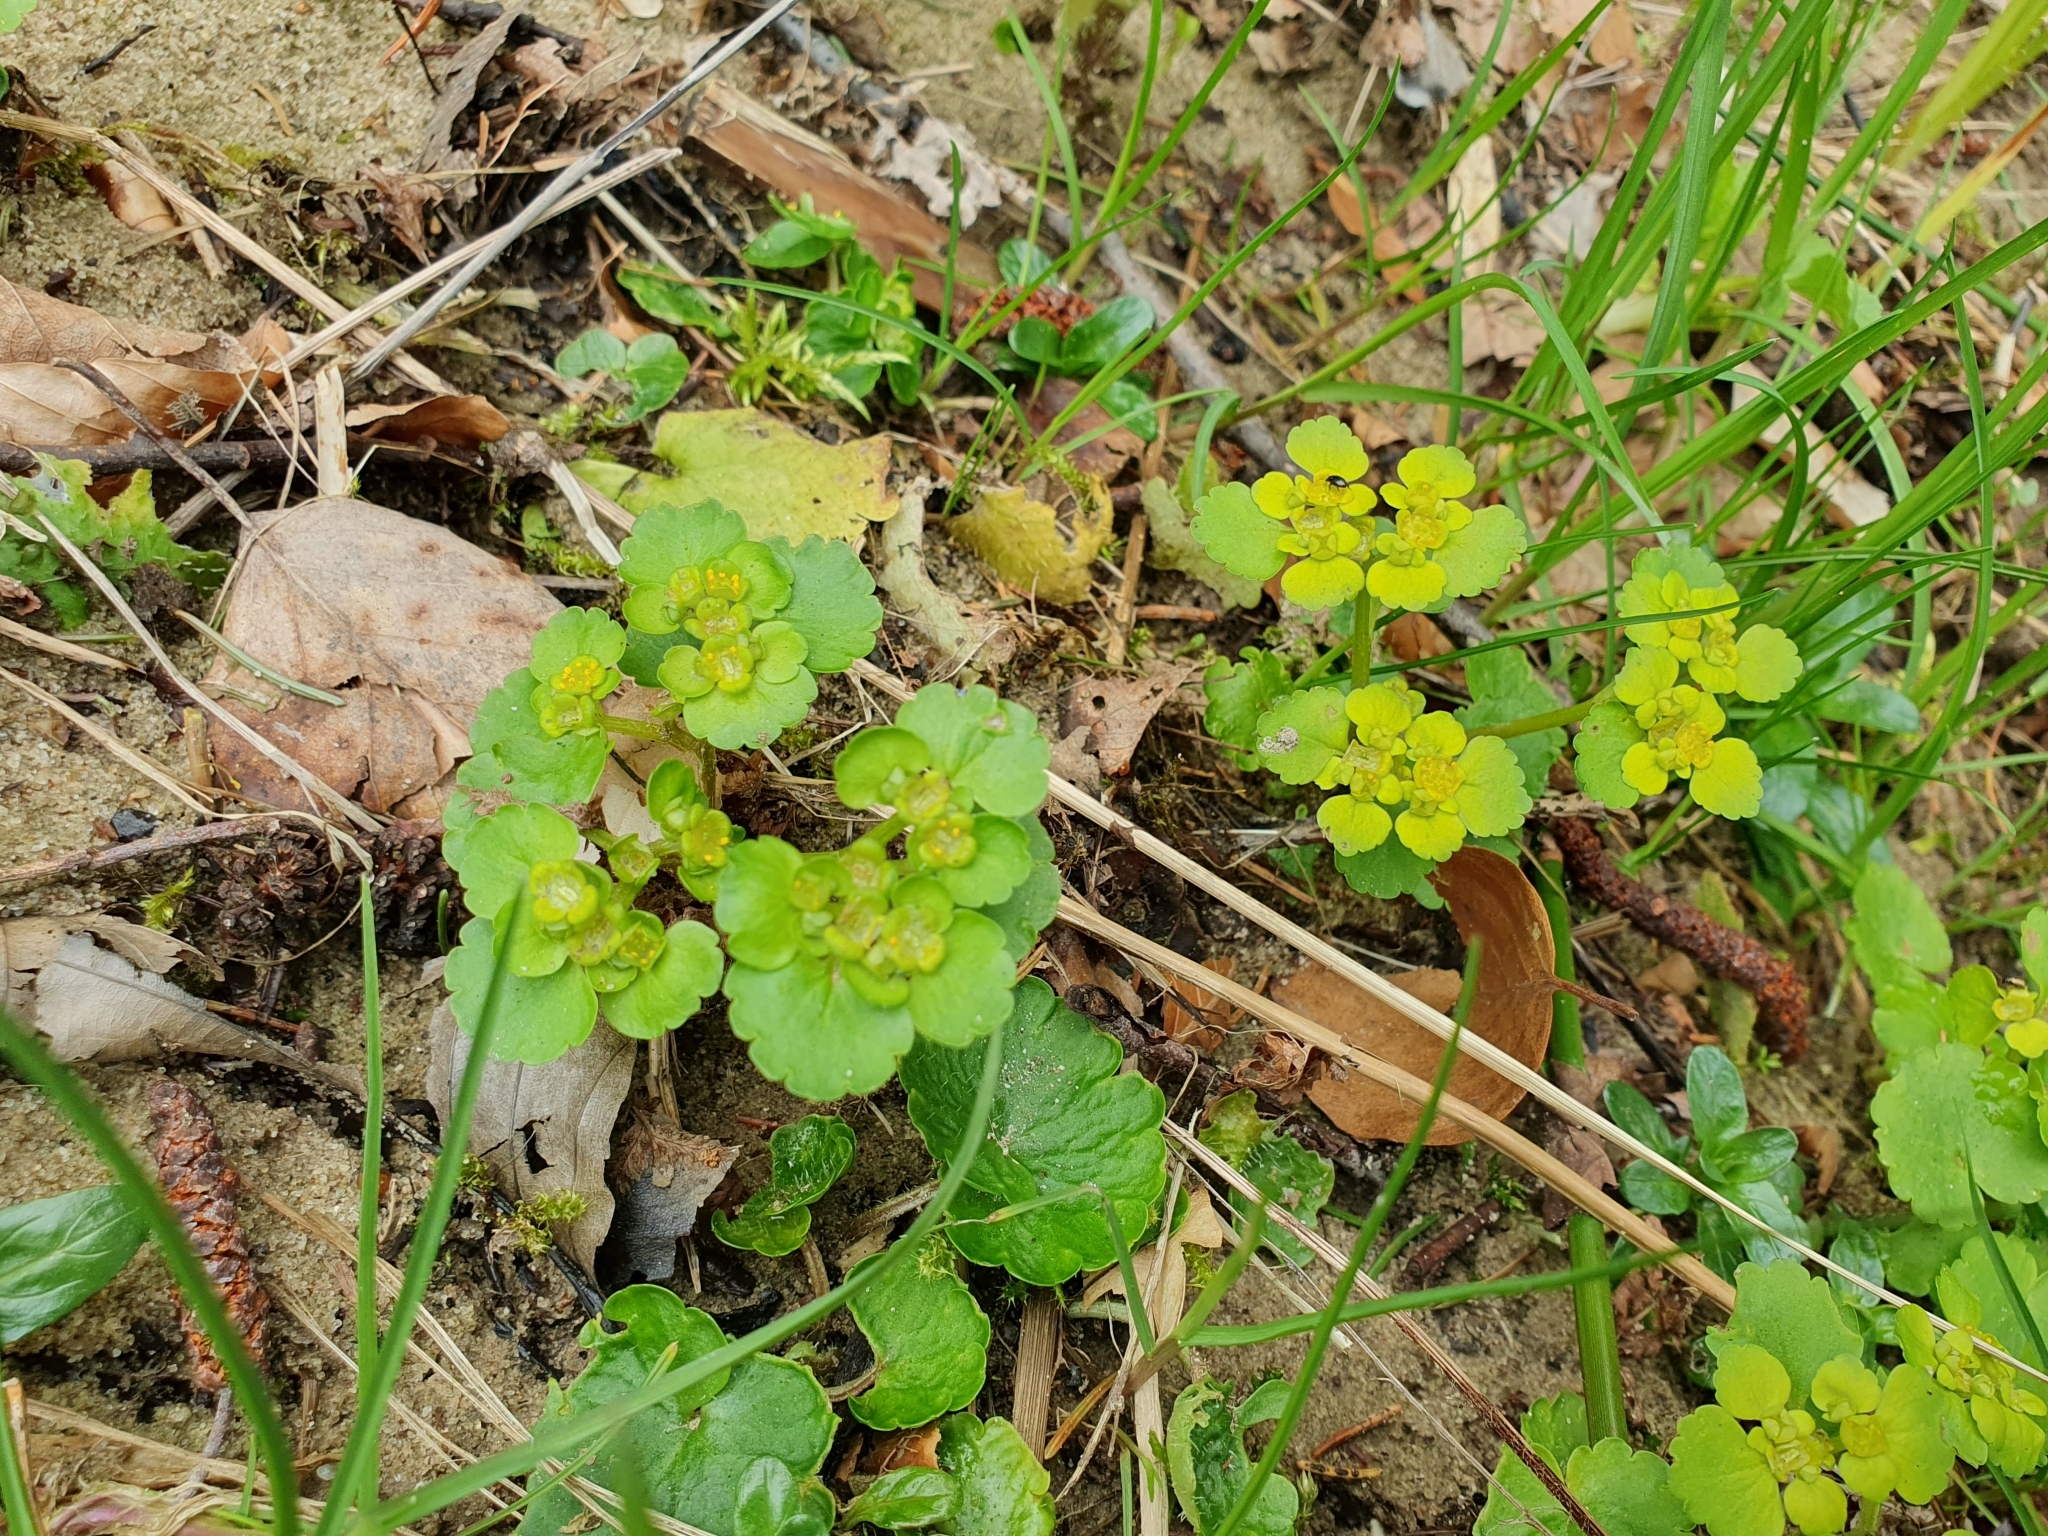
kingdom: Plantae
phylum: Tracheophyta
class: Magnoliopsida
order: Saxifragales
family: Saxifragaceae
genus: Chrysosplenium
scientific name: Chrysosplenium alternifolium
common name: Alternate-leaved golden-saxifrage
